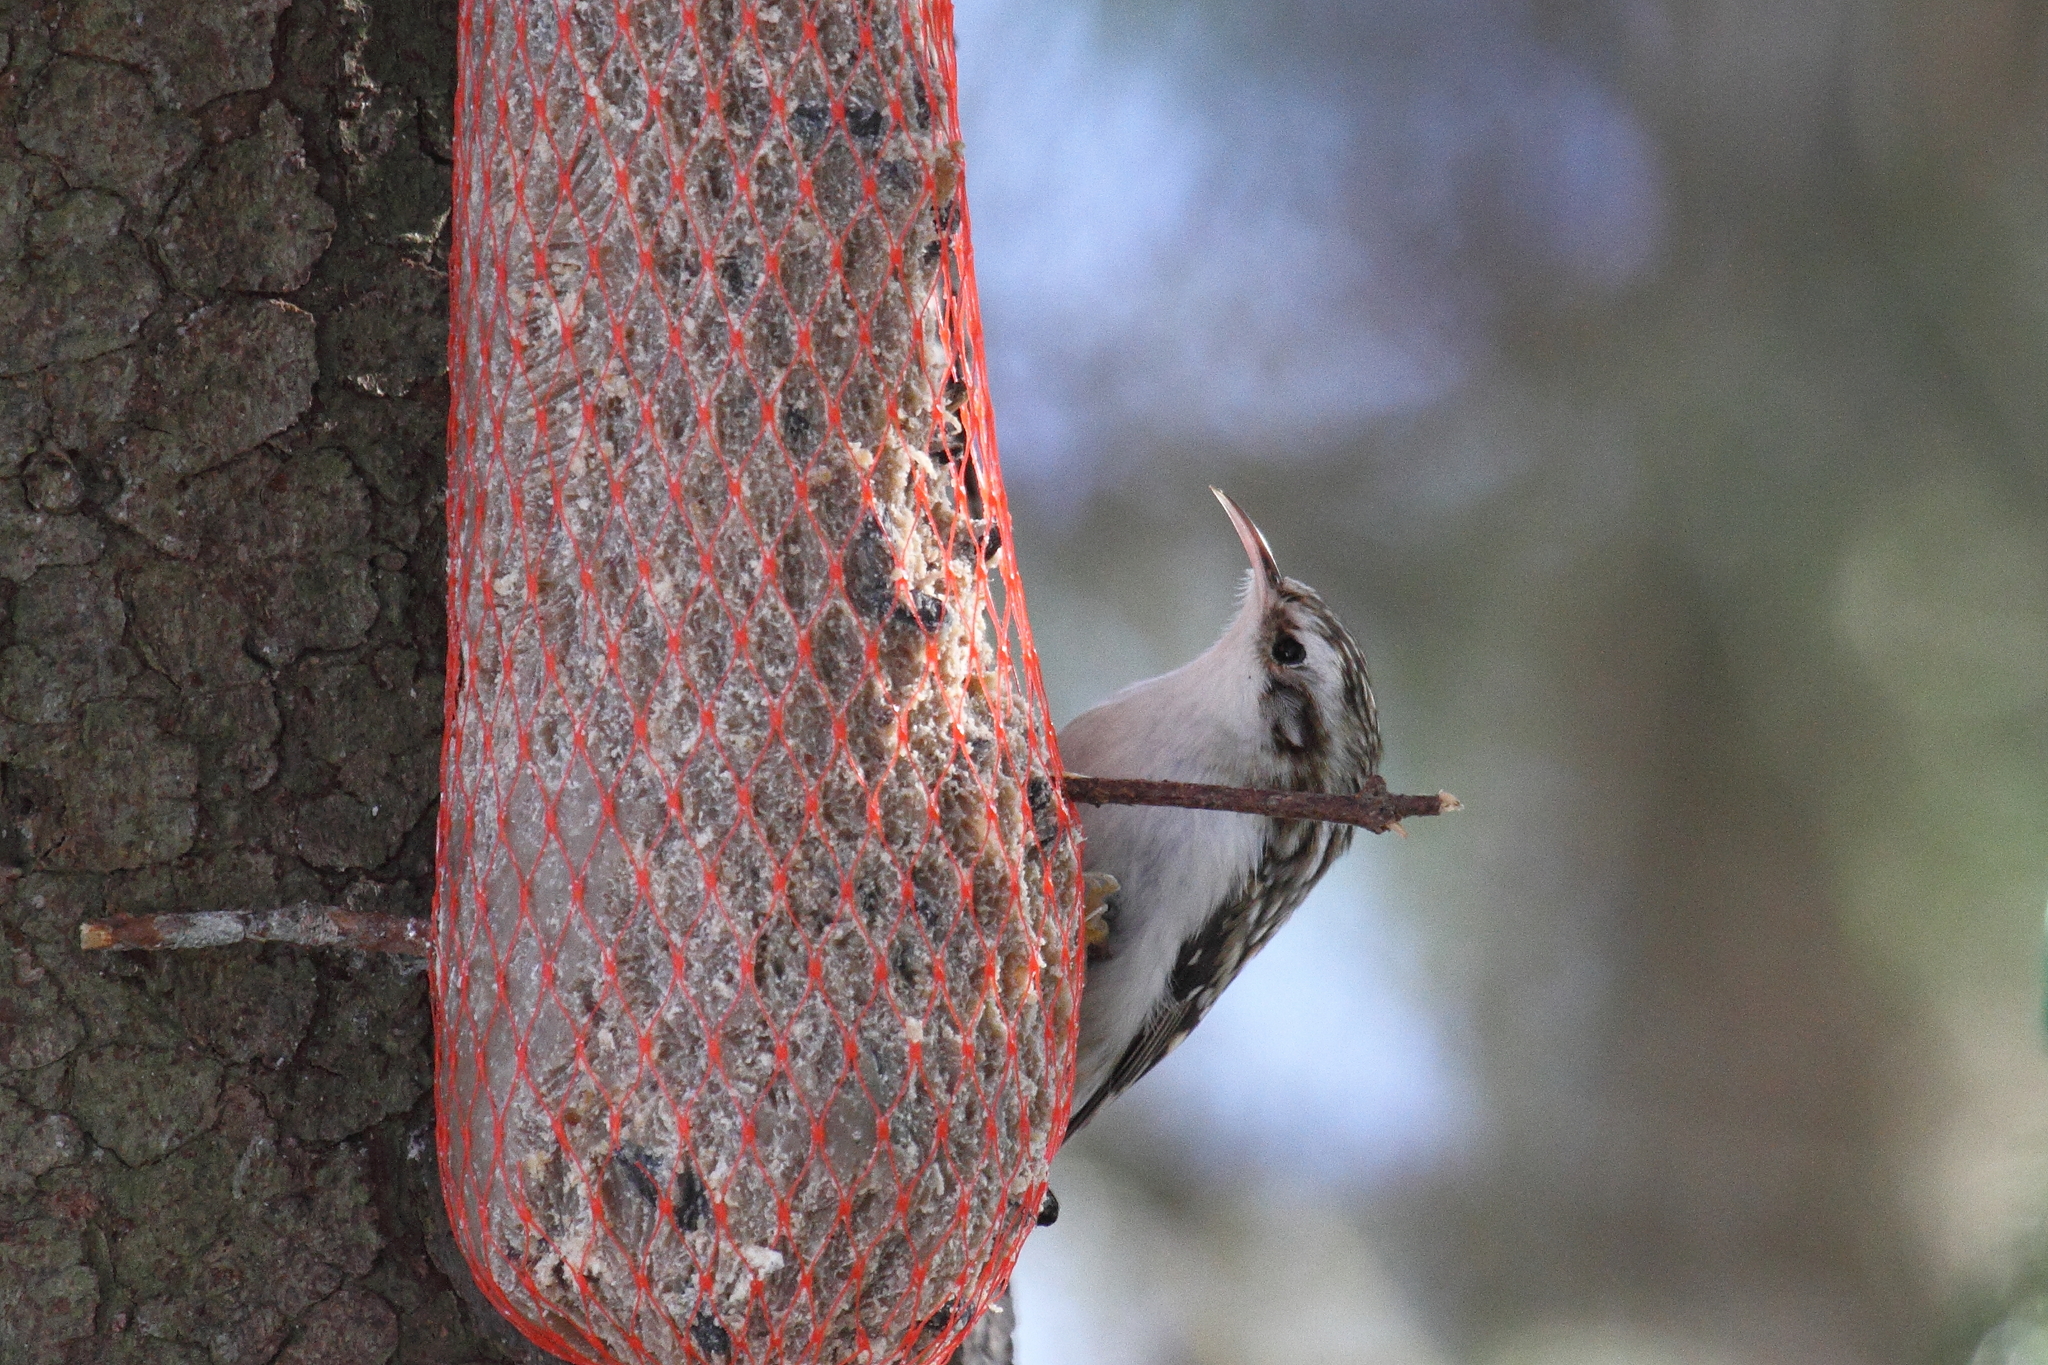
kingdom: Animalia
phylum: Chordata
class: Aves
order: Passeriformes
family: Certhiidae
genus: Certhia
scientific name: Certhia familiaris
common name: Eurasian treecreeper
